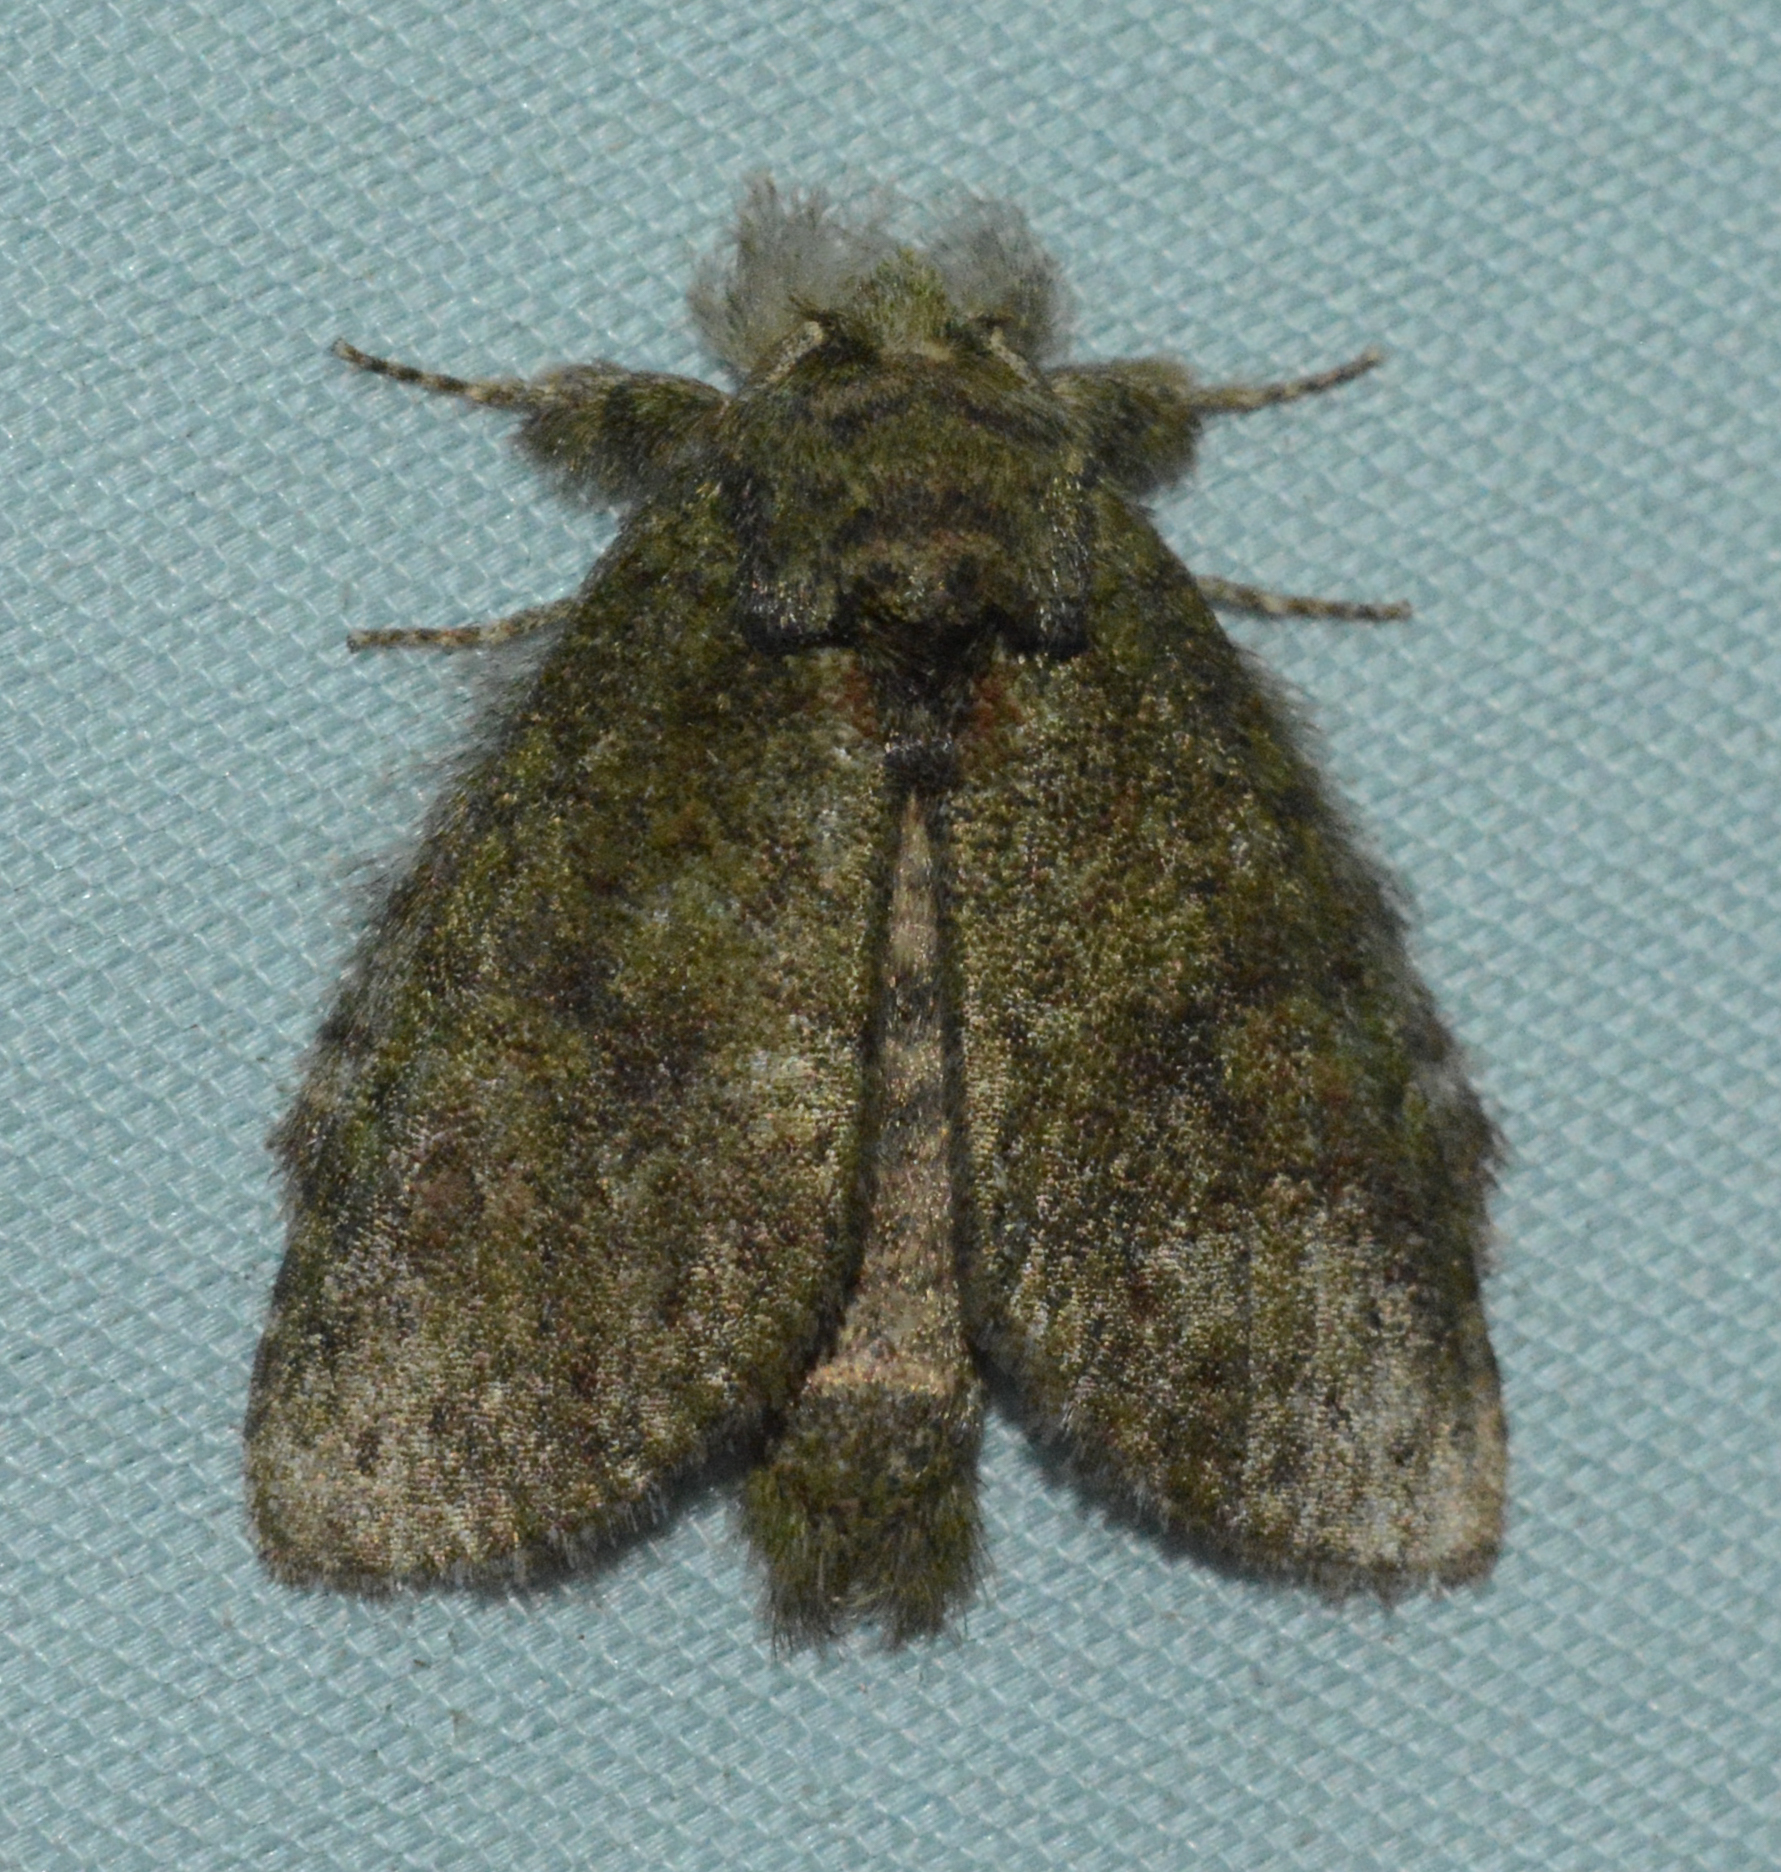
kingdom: Animalia
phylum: Arthropoda
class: Insecta
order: Lepidoptera
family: Notodontidae
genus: Disphragis
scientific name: Disphragis Cecrita guttivitta
